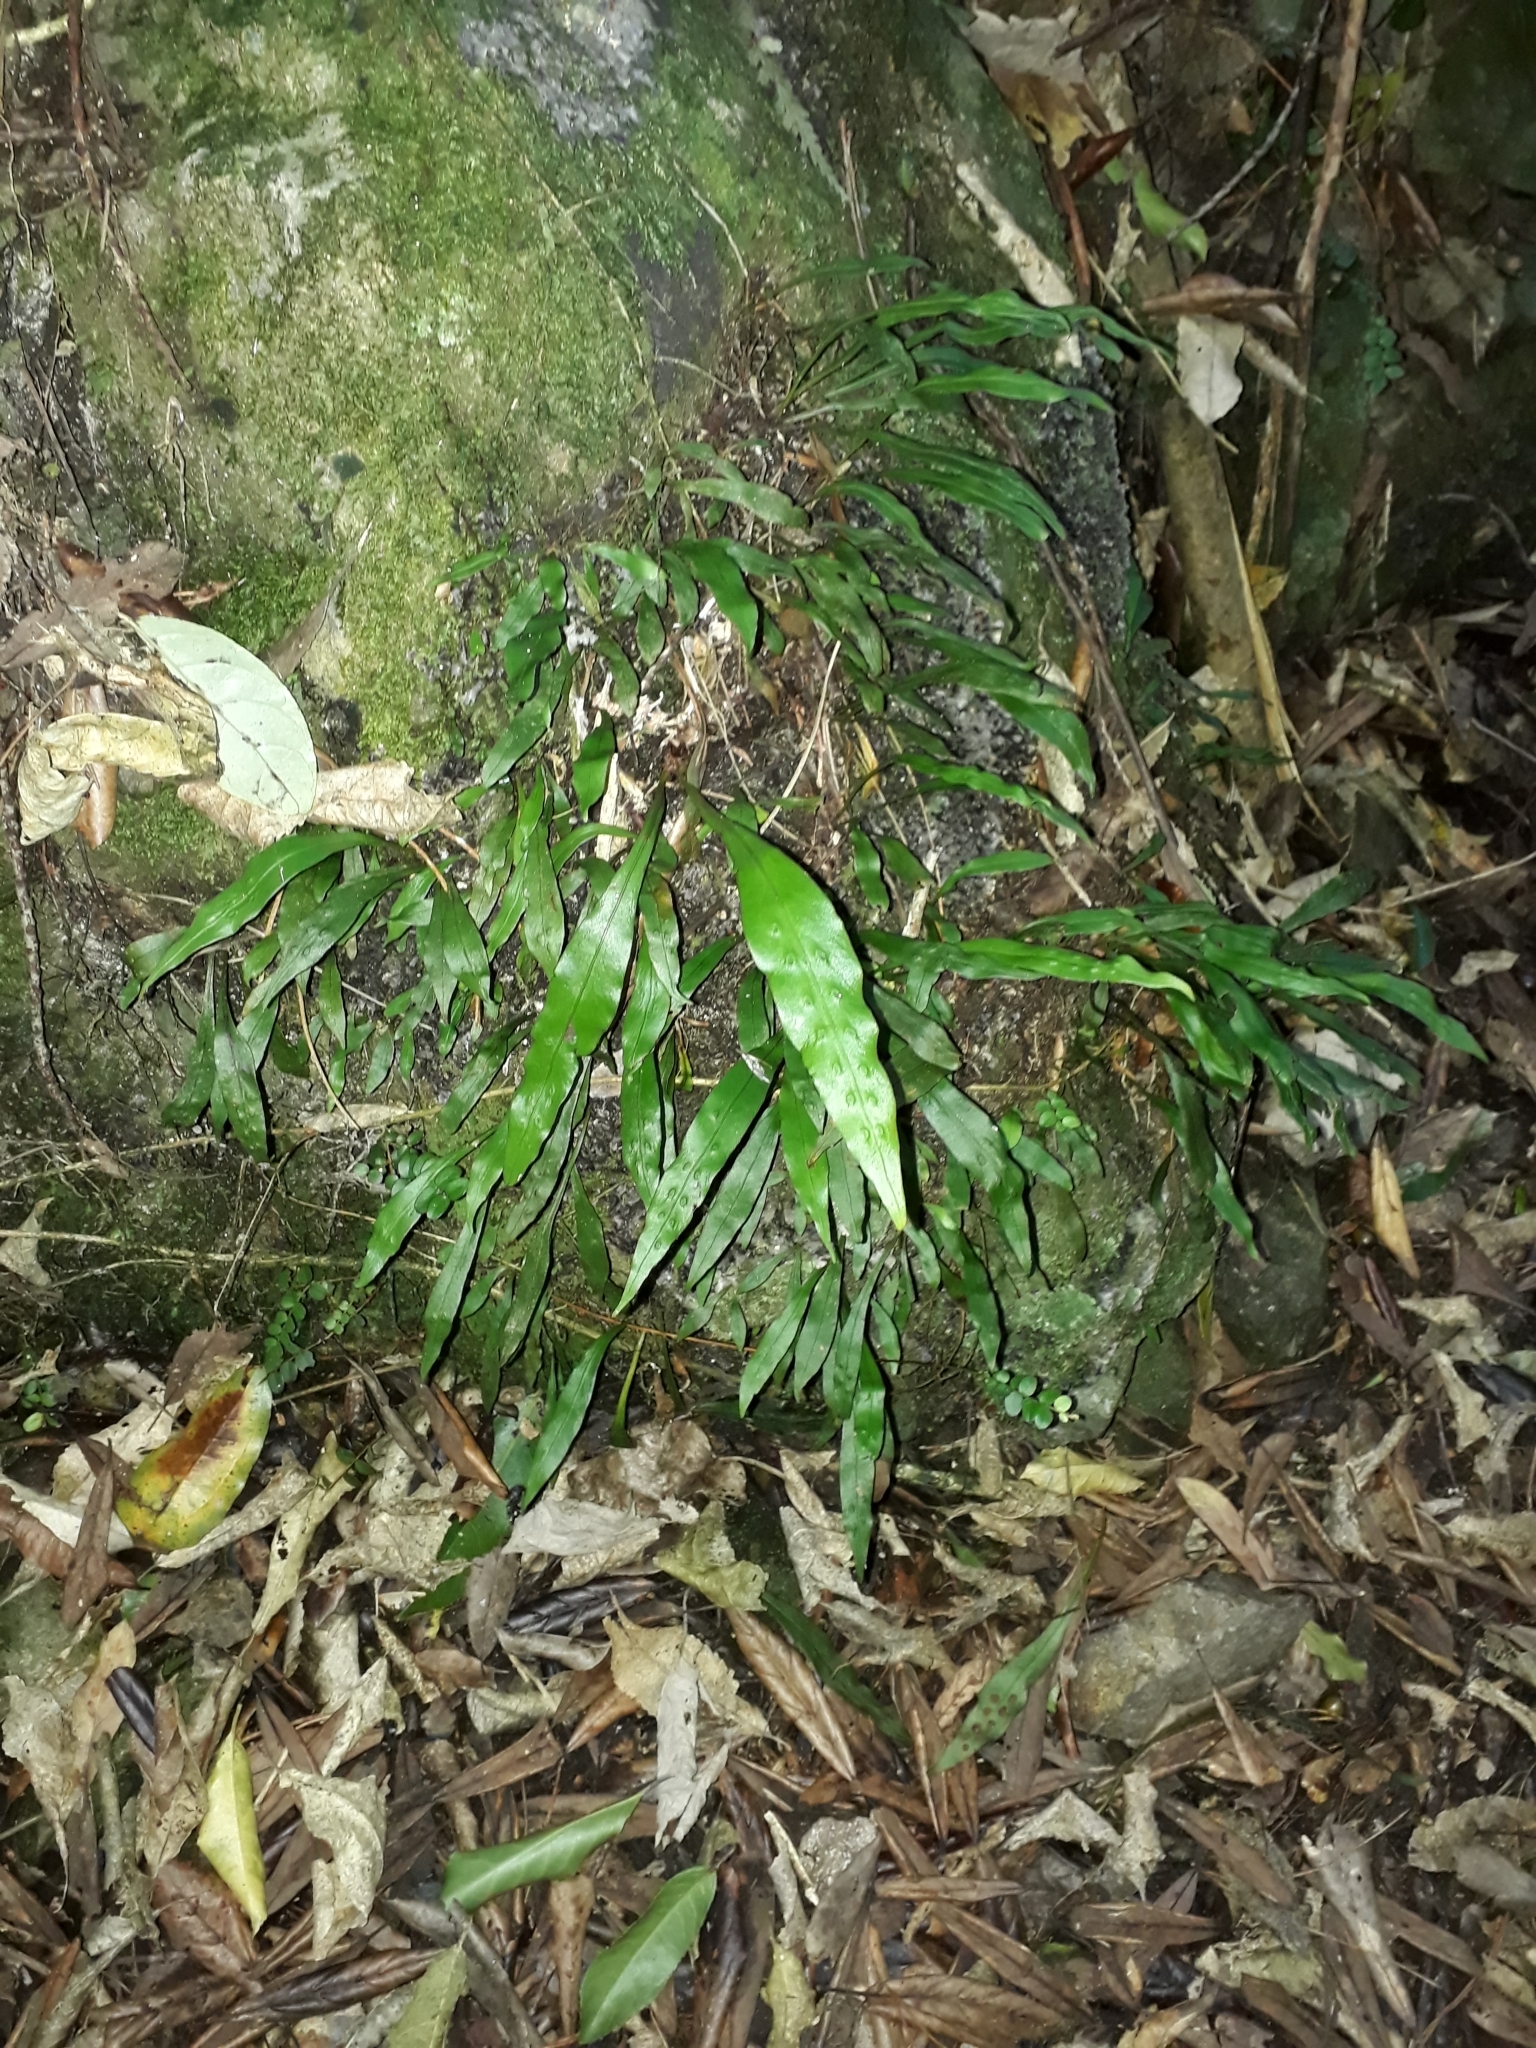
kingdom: Plantae
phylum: Tracheophyta
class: Polypodiopsida
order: Polypodiales
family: Polypodiaceae
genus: Loxogramme
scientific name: Loxogramme dictyopteris
